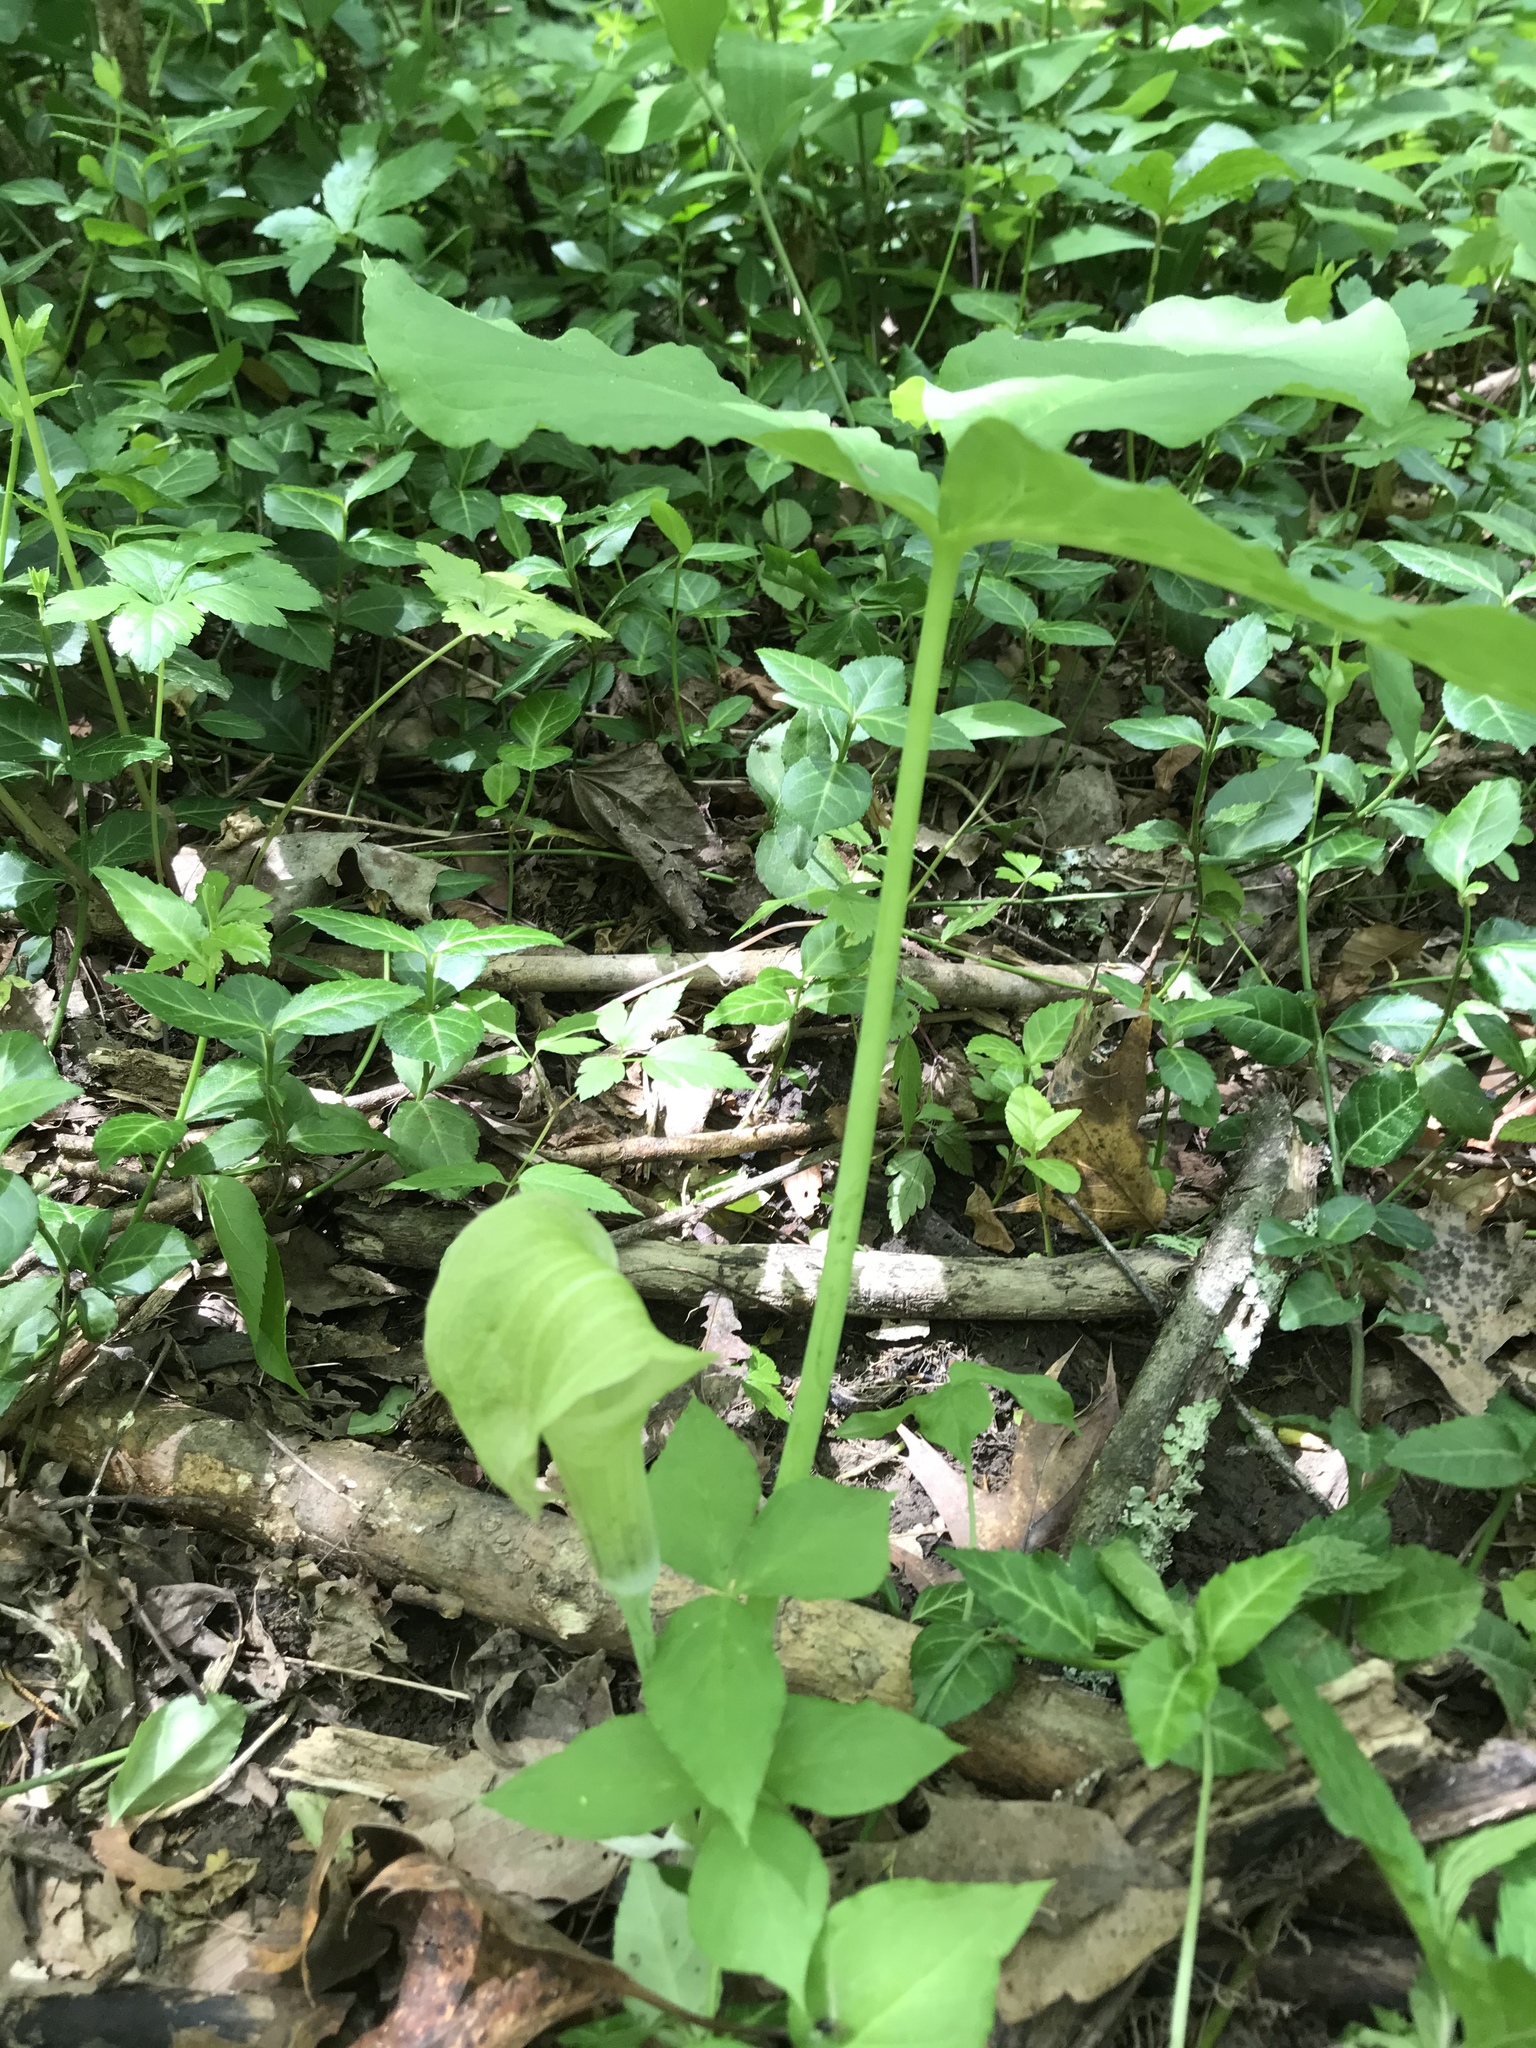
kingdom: Plantae
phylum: Tracheophyta
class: Liliopsida
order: Alismatales
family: Araceae
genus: Arisaema
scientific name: Arisaema triphyllum
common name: Jack-in-the-pulpit
